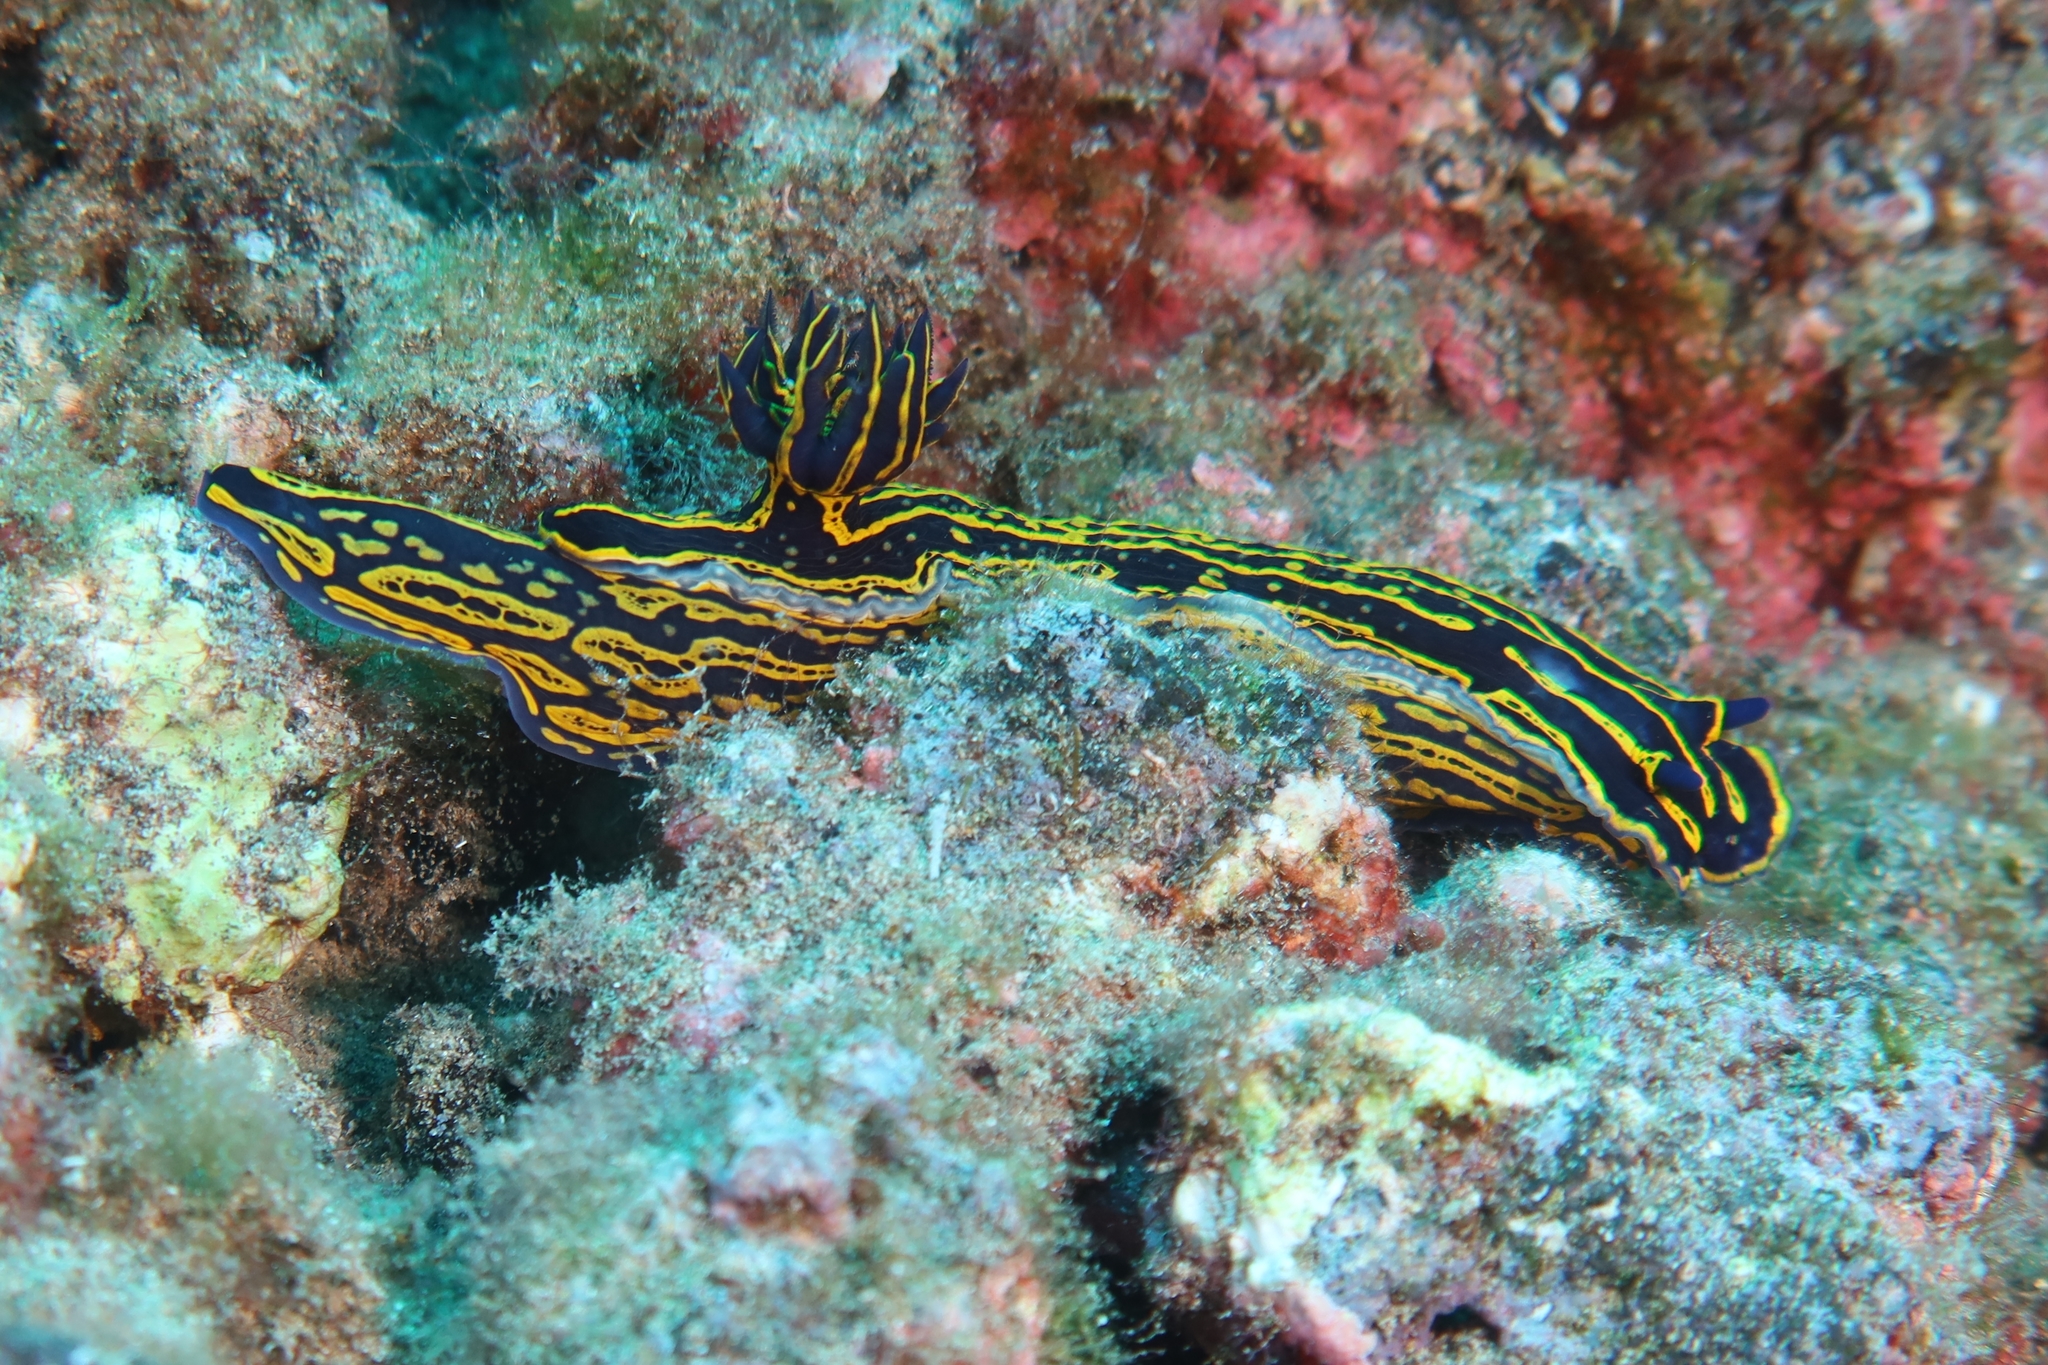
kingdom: Animalia
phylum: Mollusca
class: Gastropoda
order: Nudibranchia
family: Chromodorididae
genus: Felimare
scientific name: Felimare picta
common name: Giant doris
